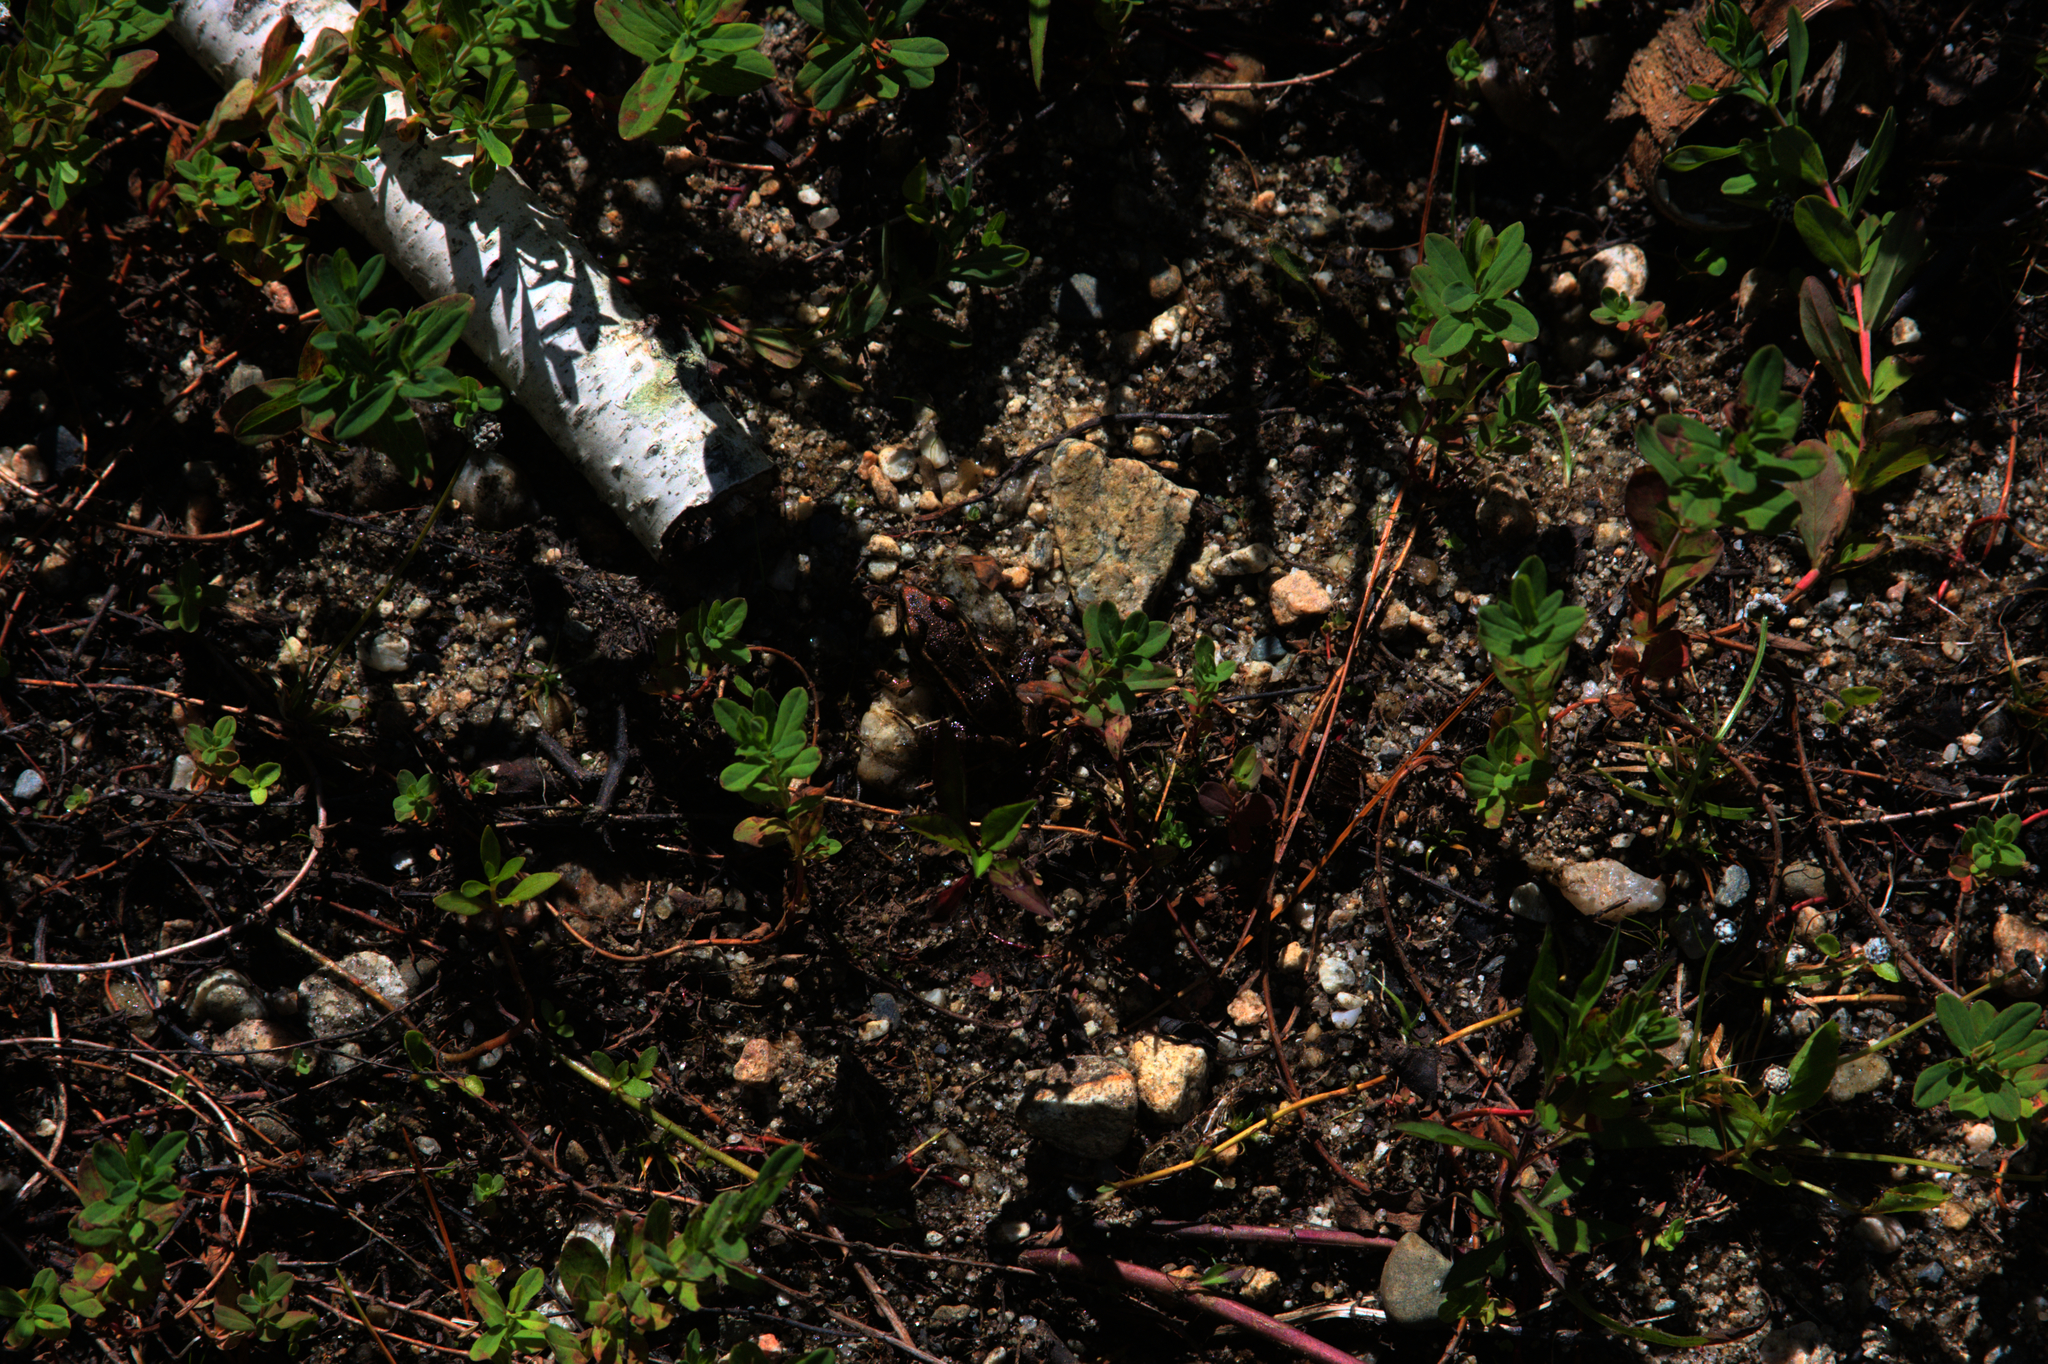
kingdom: Animalia
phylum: Chordata
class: Amphibia
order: Anura
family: Ranidae
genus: Lithobates
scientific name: Lithobates palustris
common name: Pickerel frog
